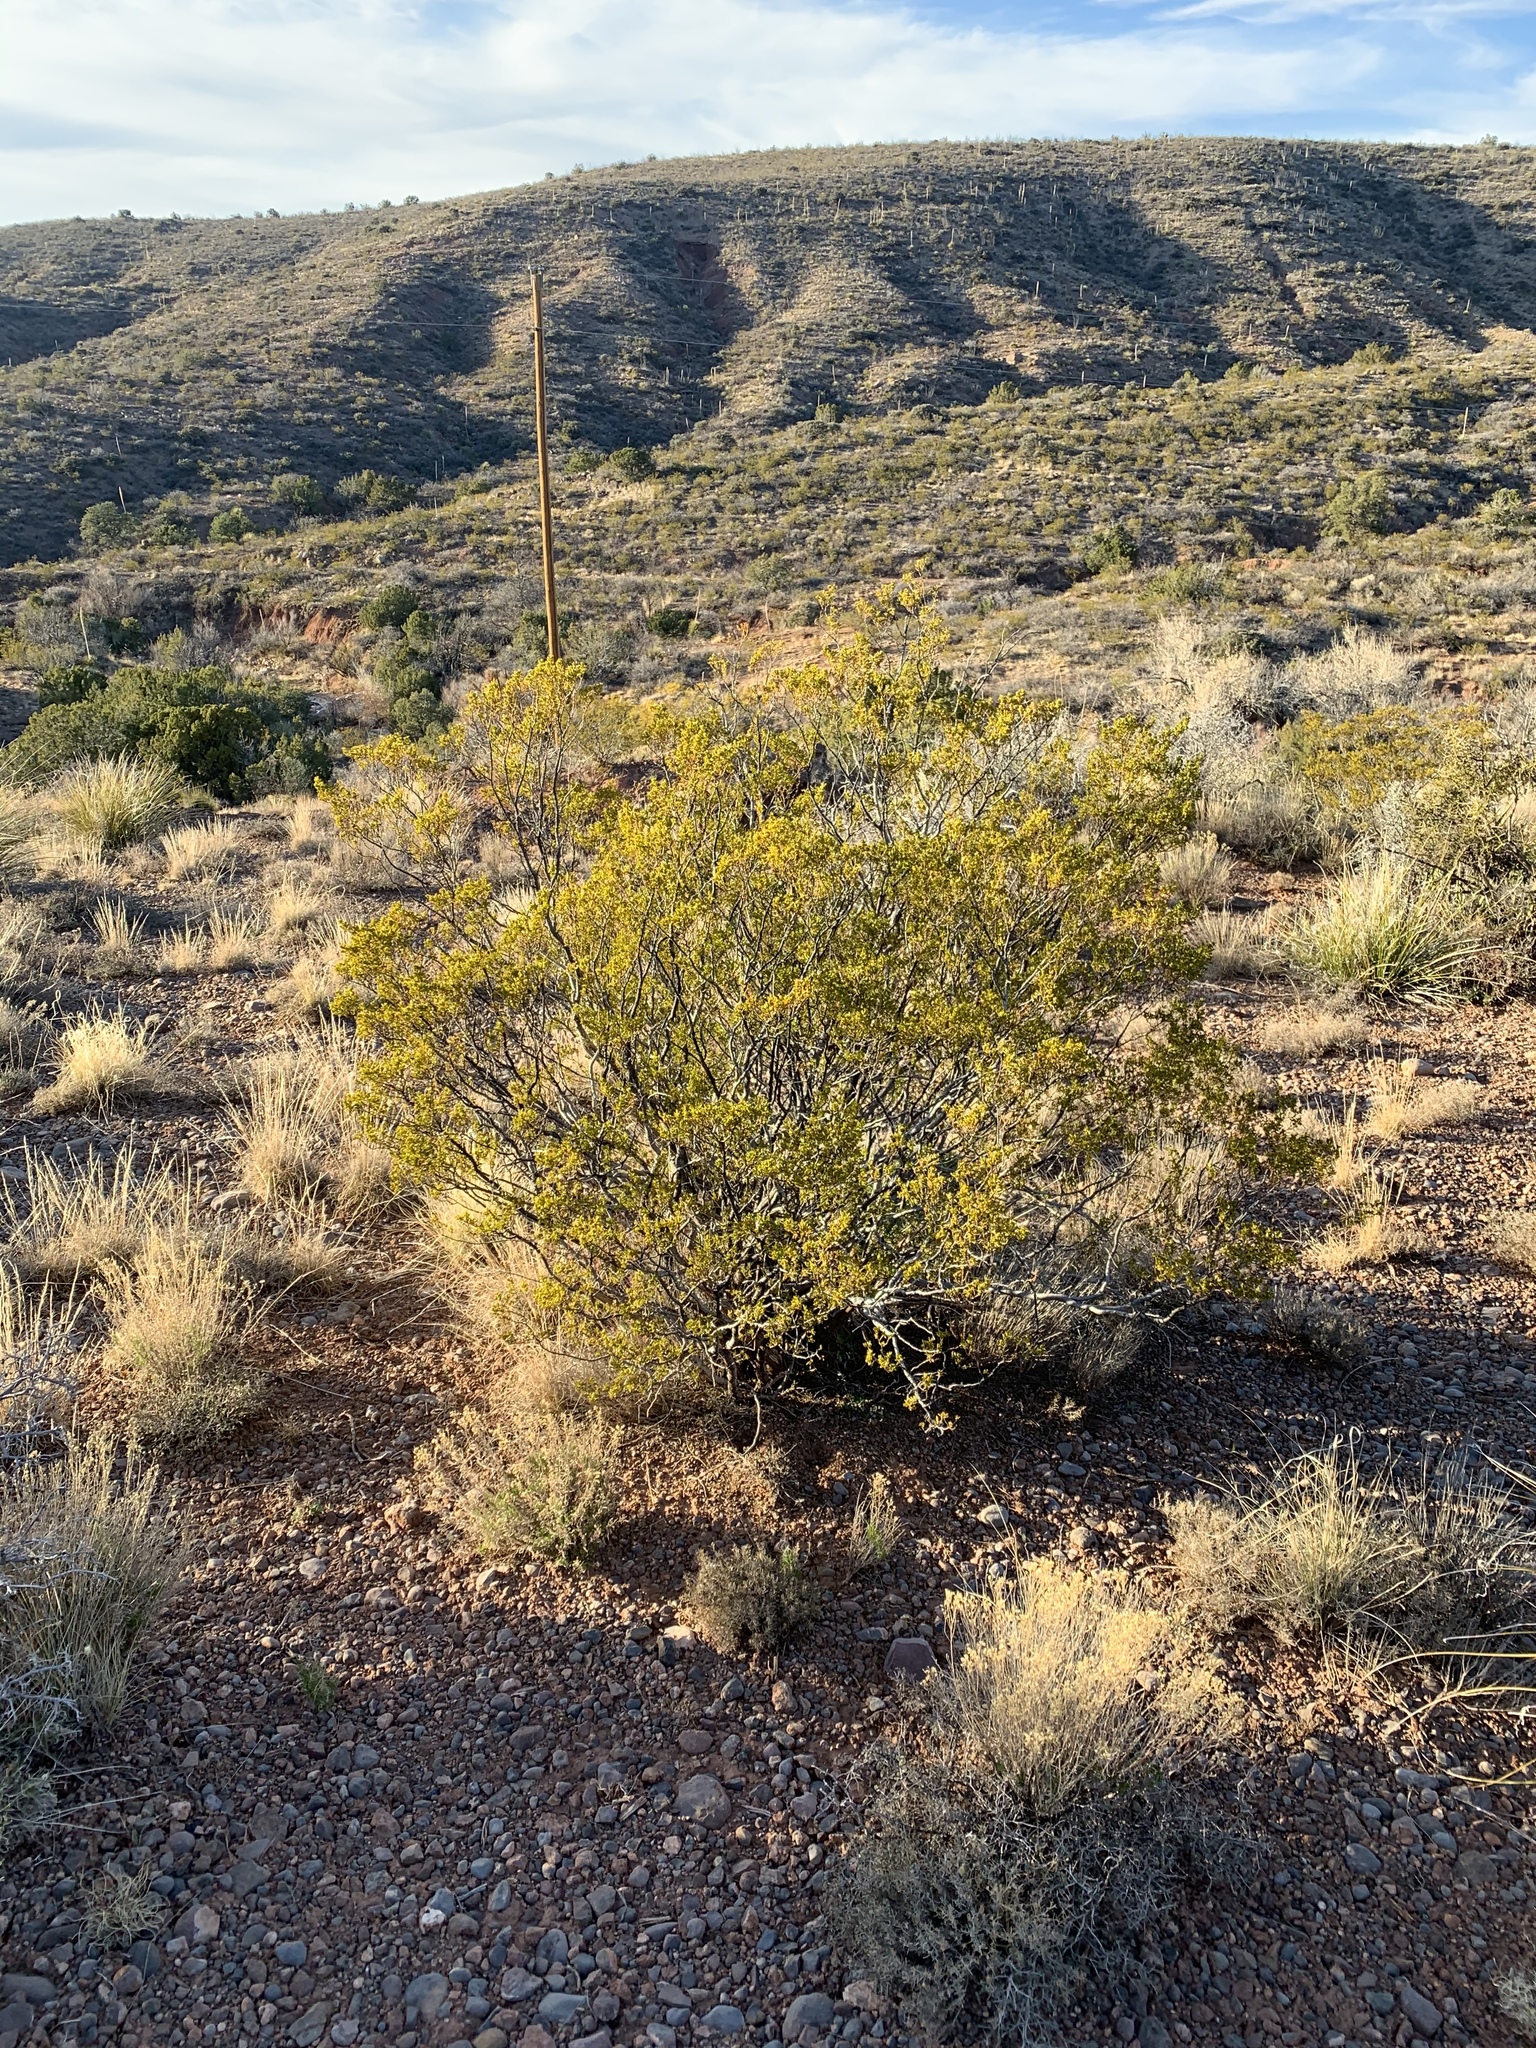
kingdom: Plantae
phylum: Tracheophyta
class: Magnoliopsida
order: Zygophyllales
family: Zygophyllaceae
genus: Larrea
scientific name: Larrea tridentata
